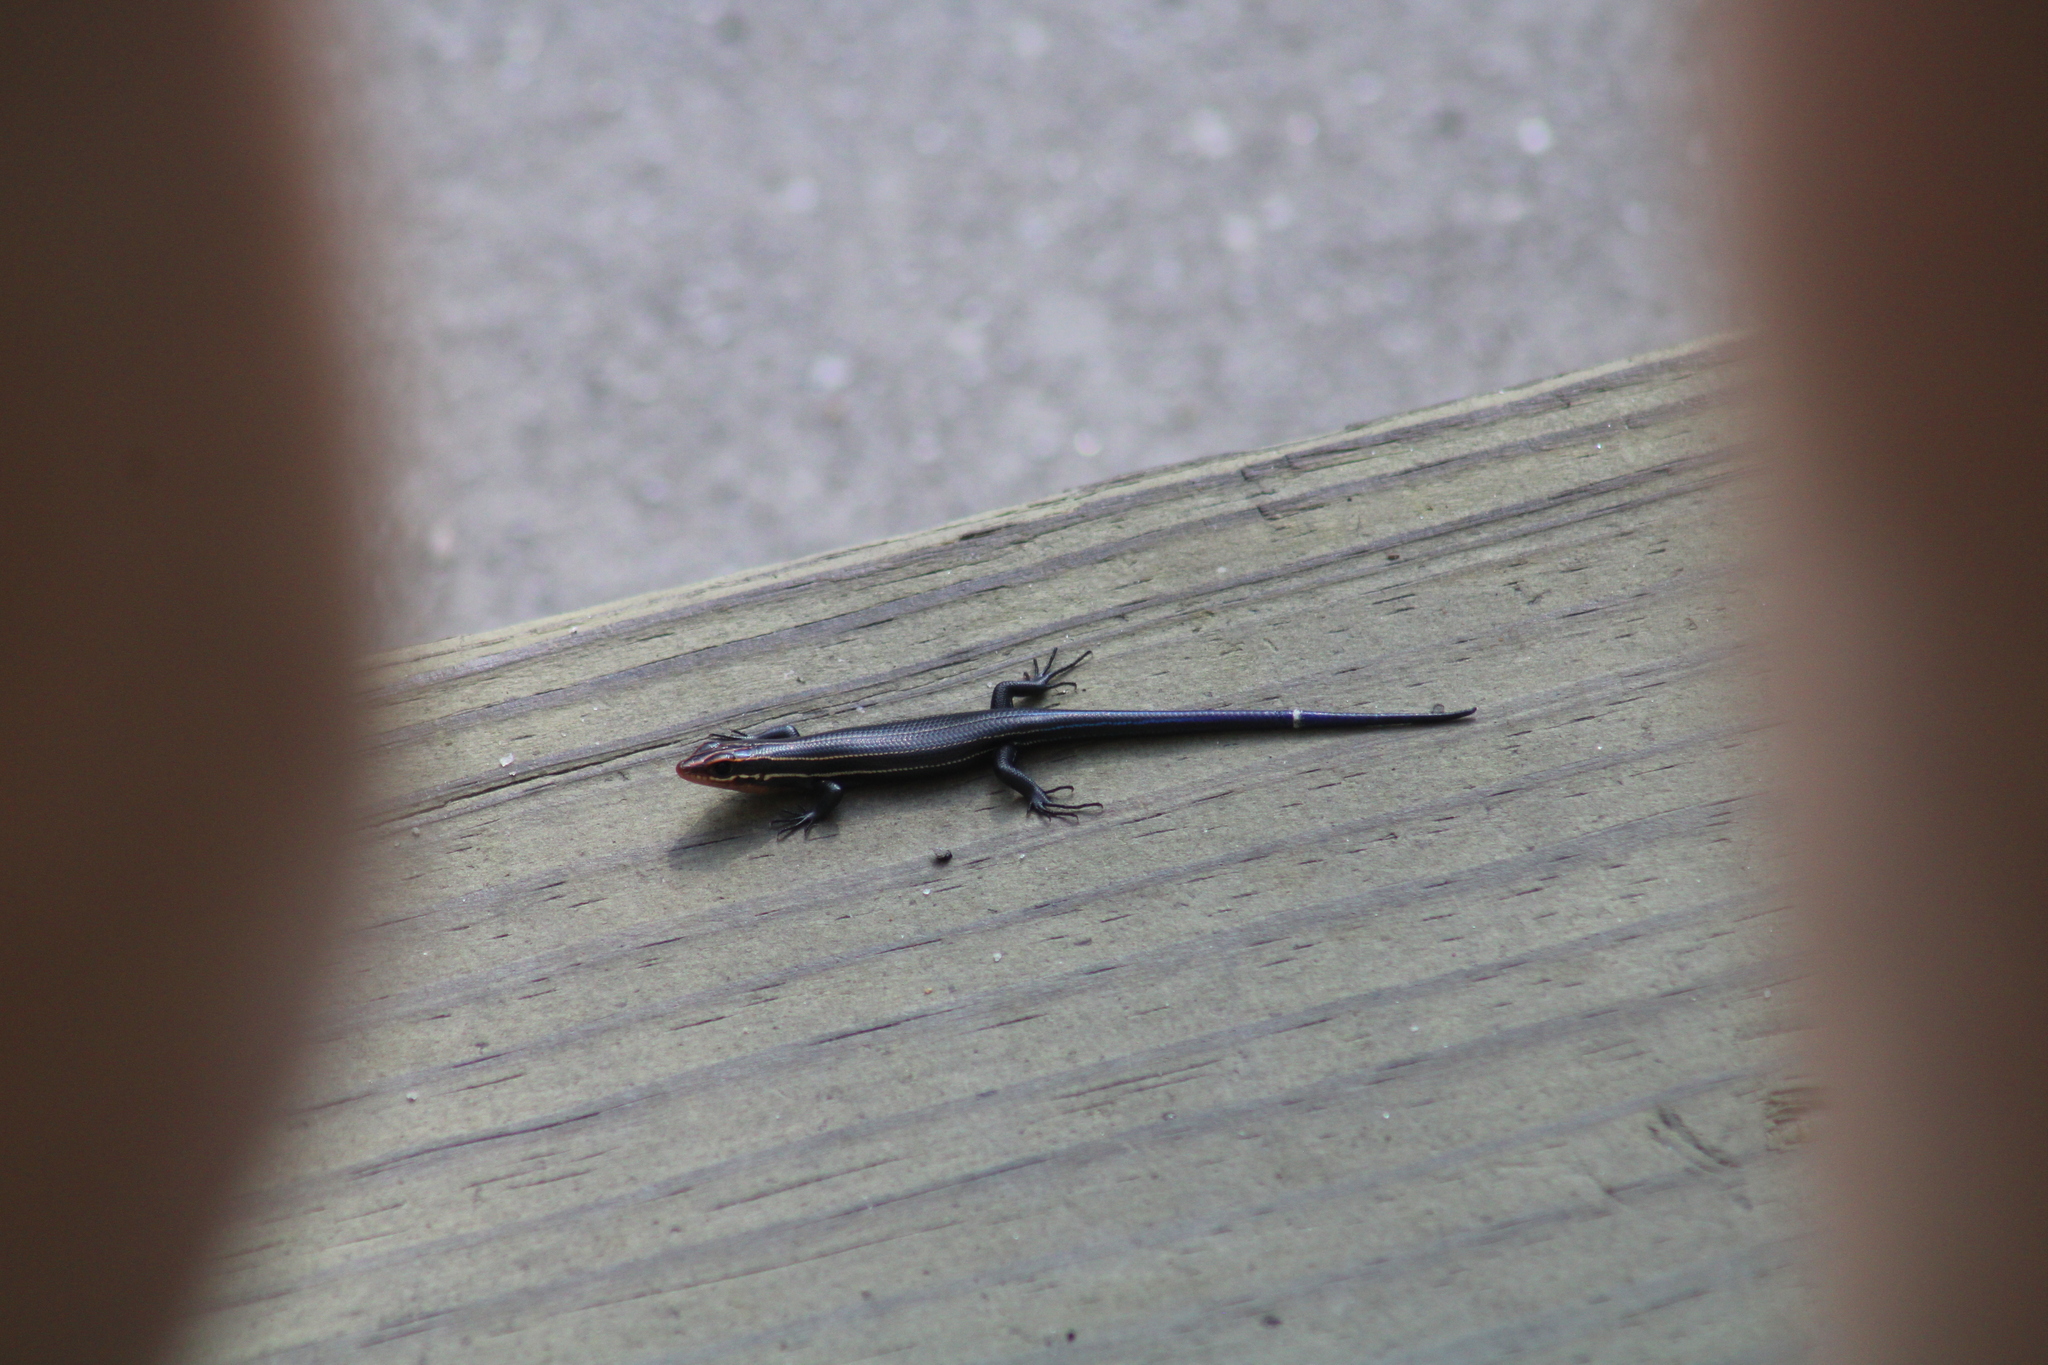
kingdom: Animalia
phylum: Chordata
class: Squamata
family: Scincidae
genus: Plestiodon
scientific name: Plestiodon inexpectatus
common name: Southeastern five-lined skink
